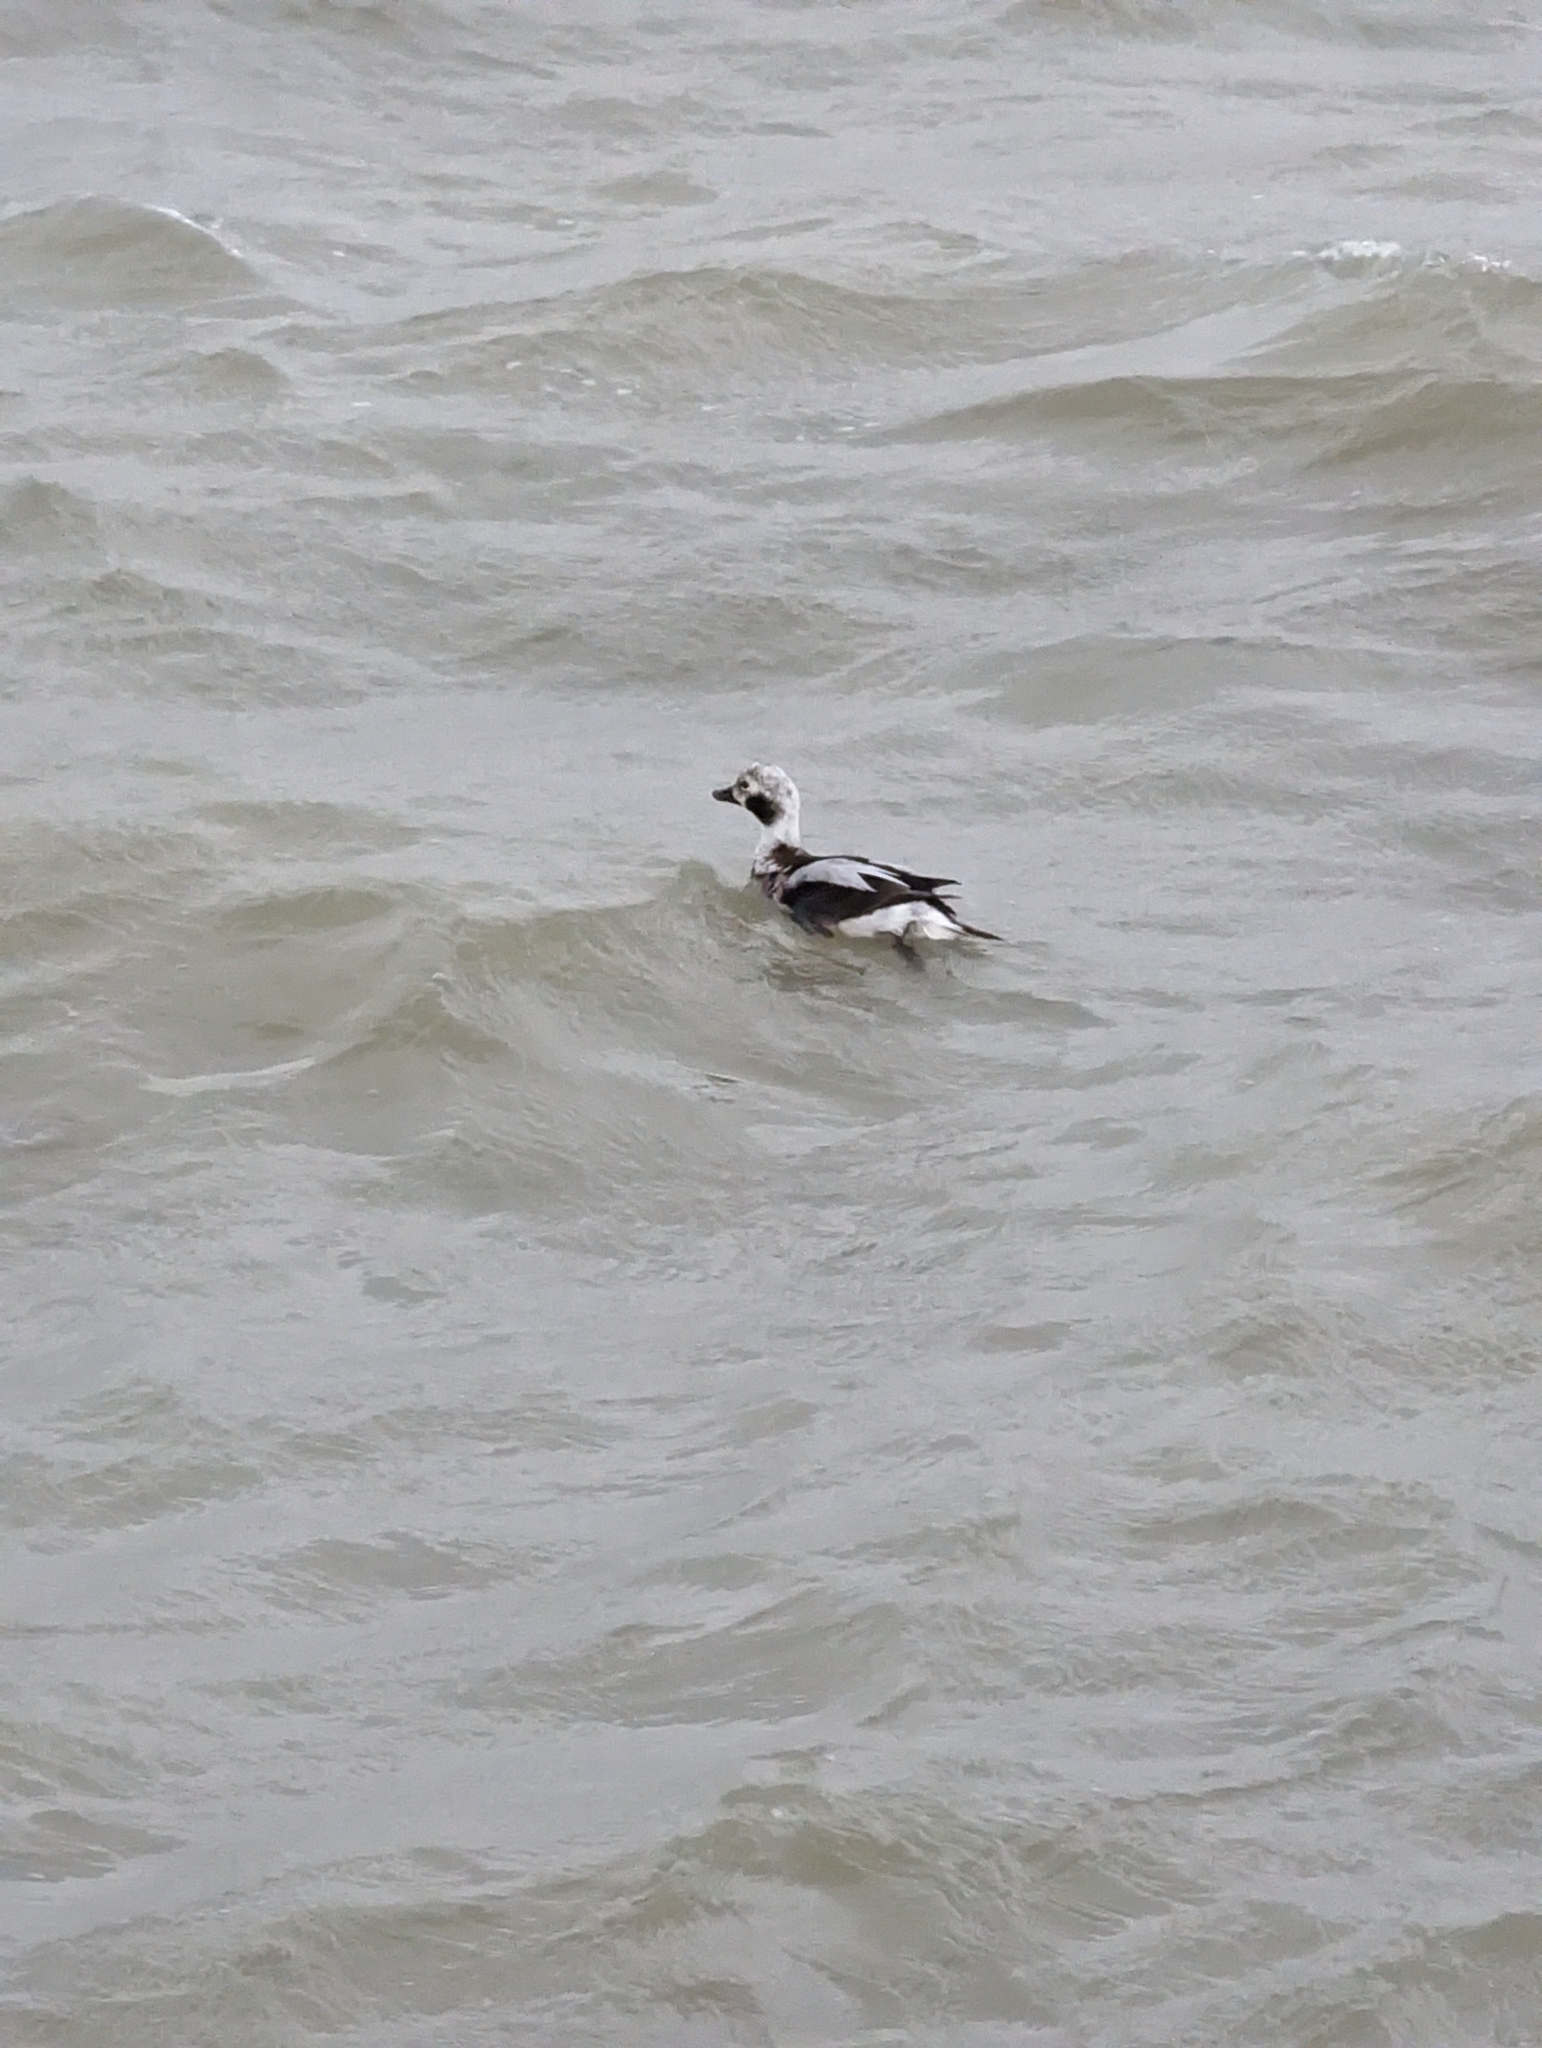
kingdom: Animalia
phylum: Chordata
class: Aves
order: Anseriformes
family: Anatidae
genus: Clangula
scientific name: Clangula hyemalis
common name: Long-tailed duck
